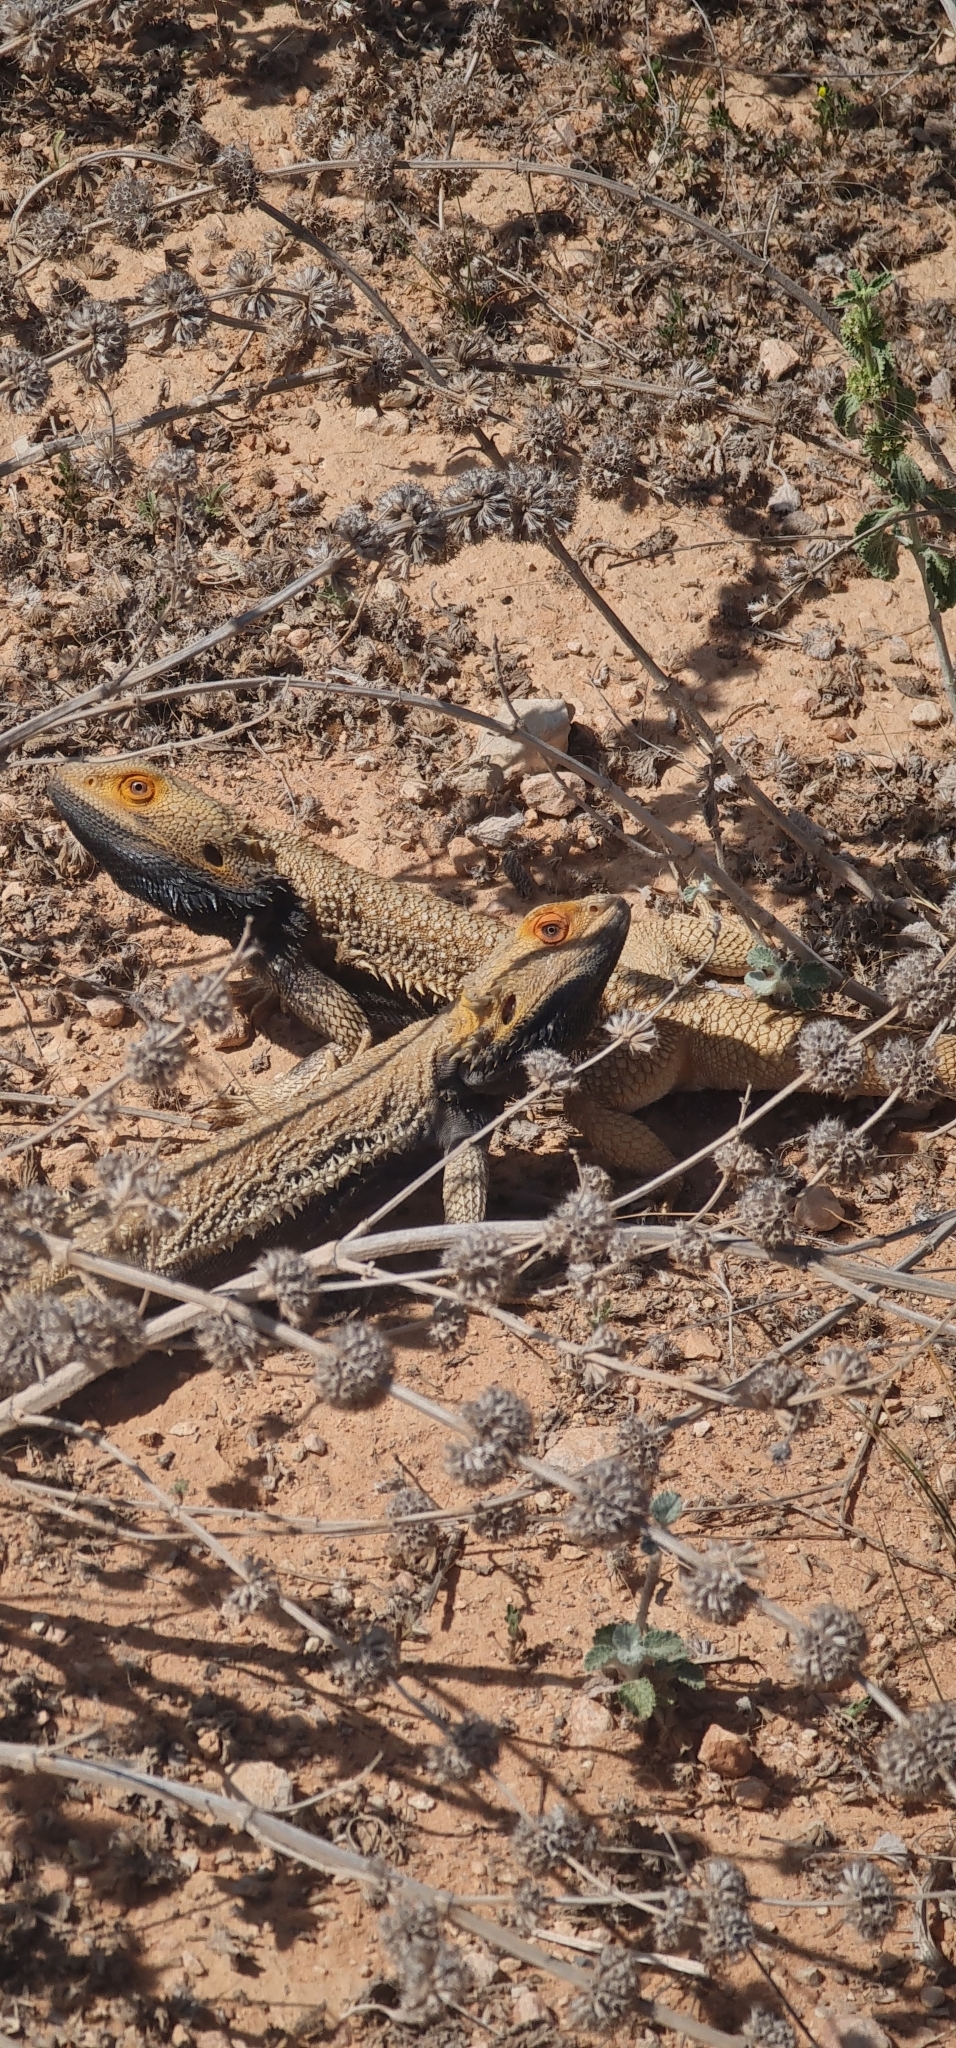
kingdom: Animalia
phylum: Chordata
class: Squamata
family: Agamidae
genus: Pogona
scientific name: Pogona vitticeps
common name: Central bearded dragon
